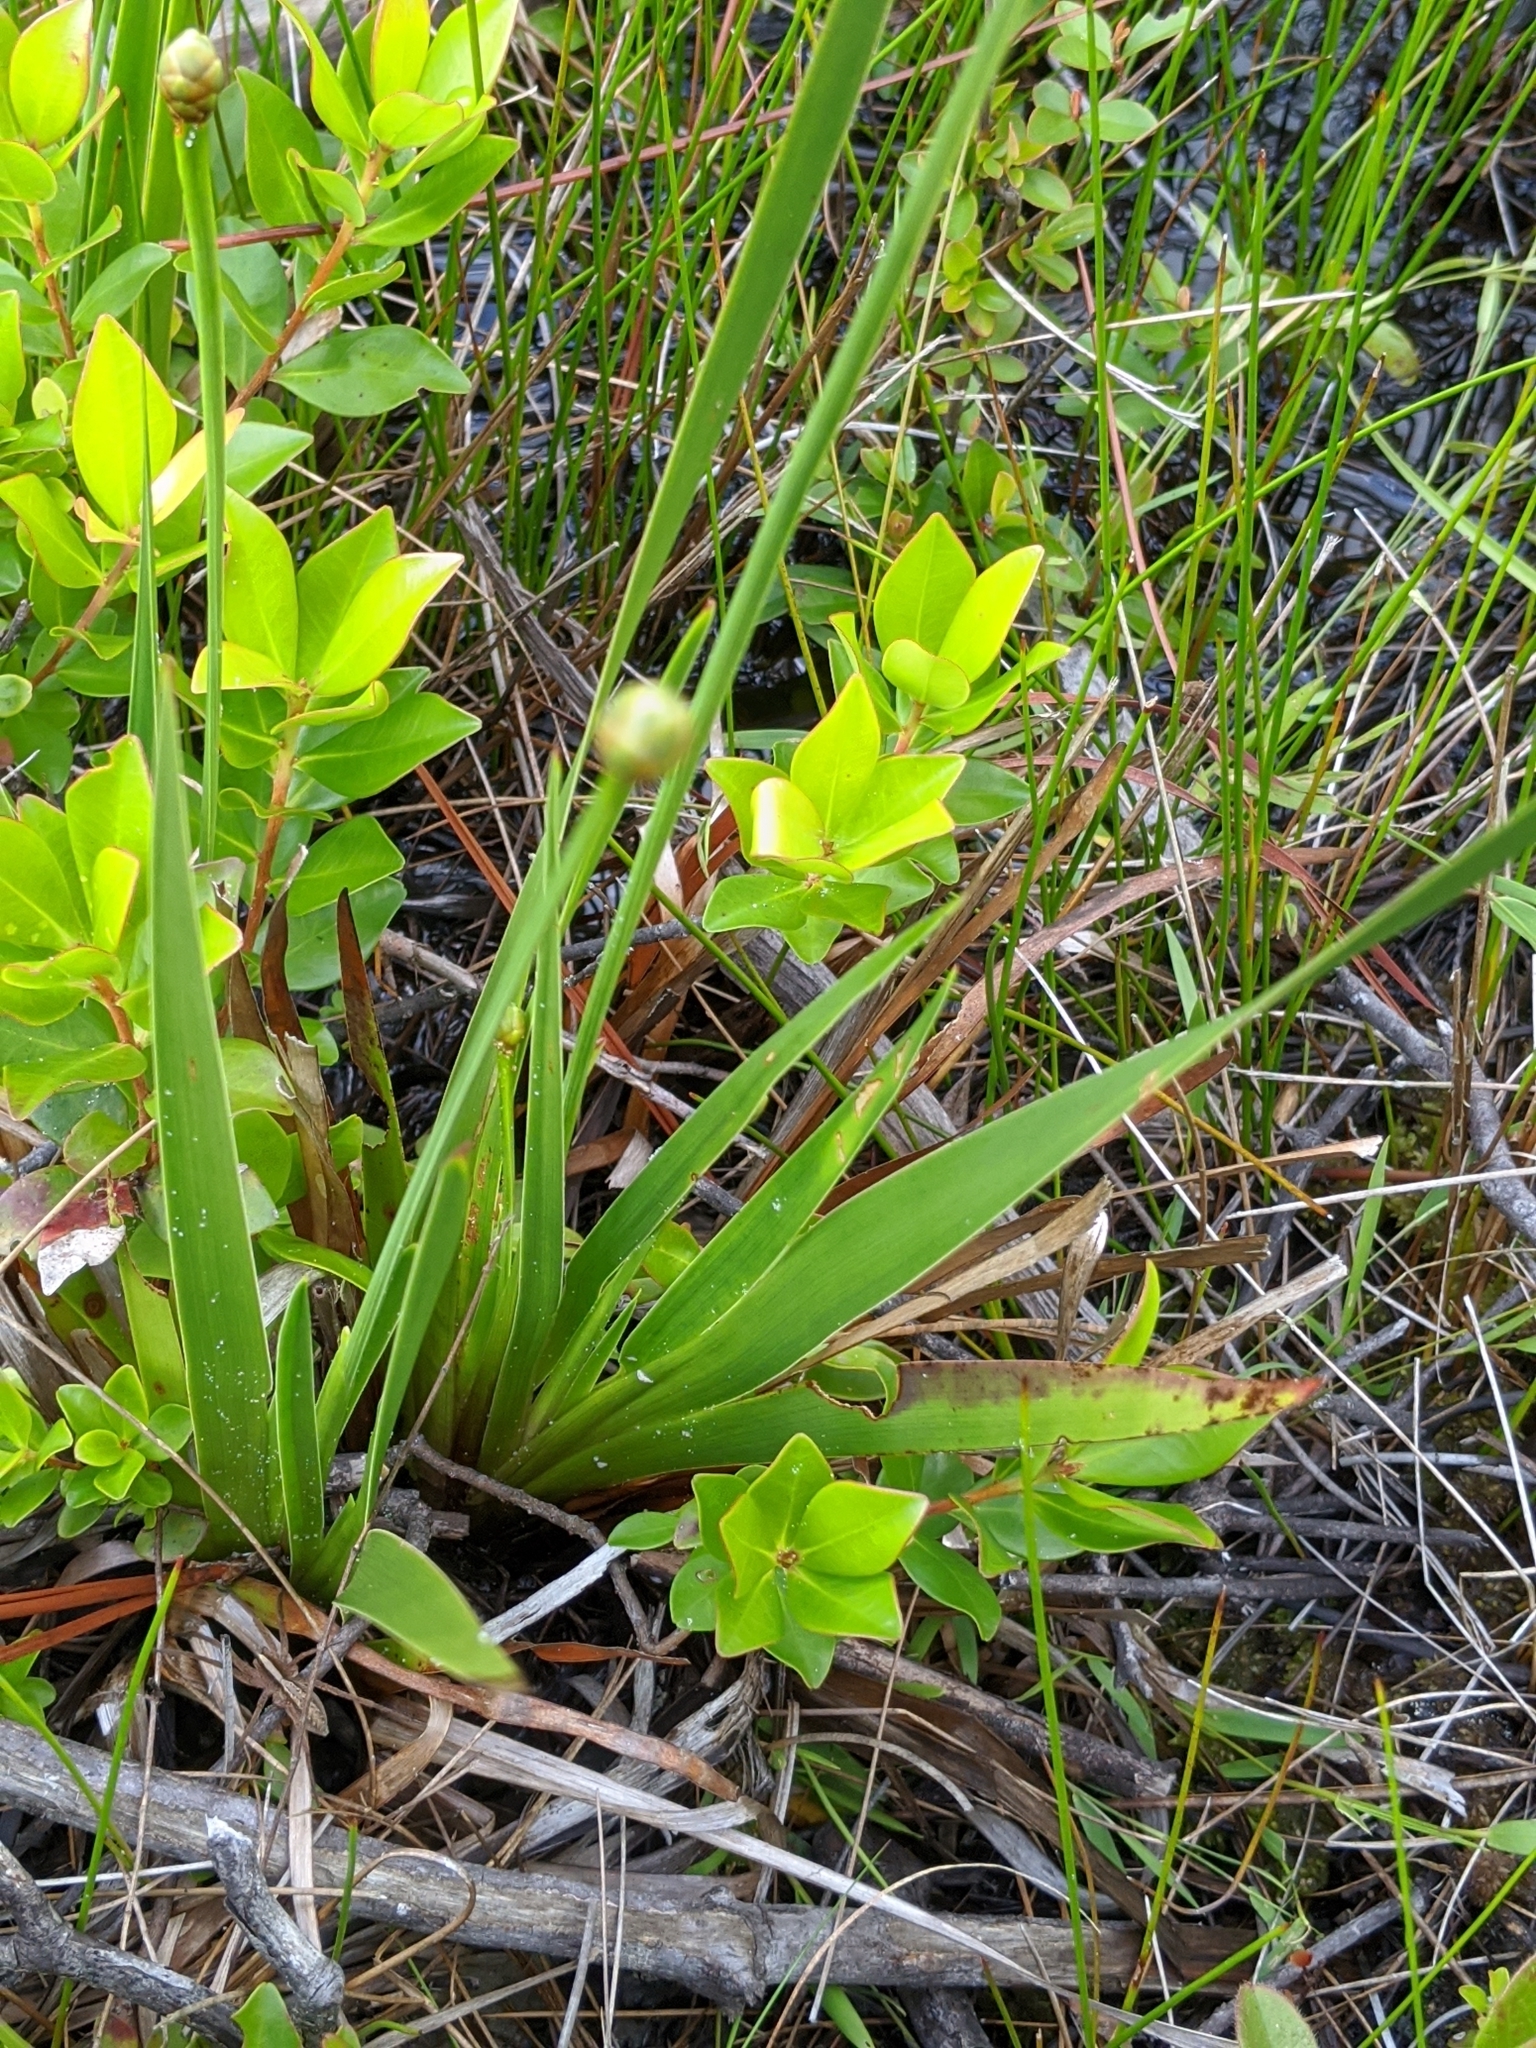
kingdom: Plantae
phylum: Tracheophyta
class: Magnoliopsida
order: Ericales
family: Sarraceniaceae
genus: Sarracenia
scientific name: Sarracenia flava
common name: Trumpets
